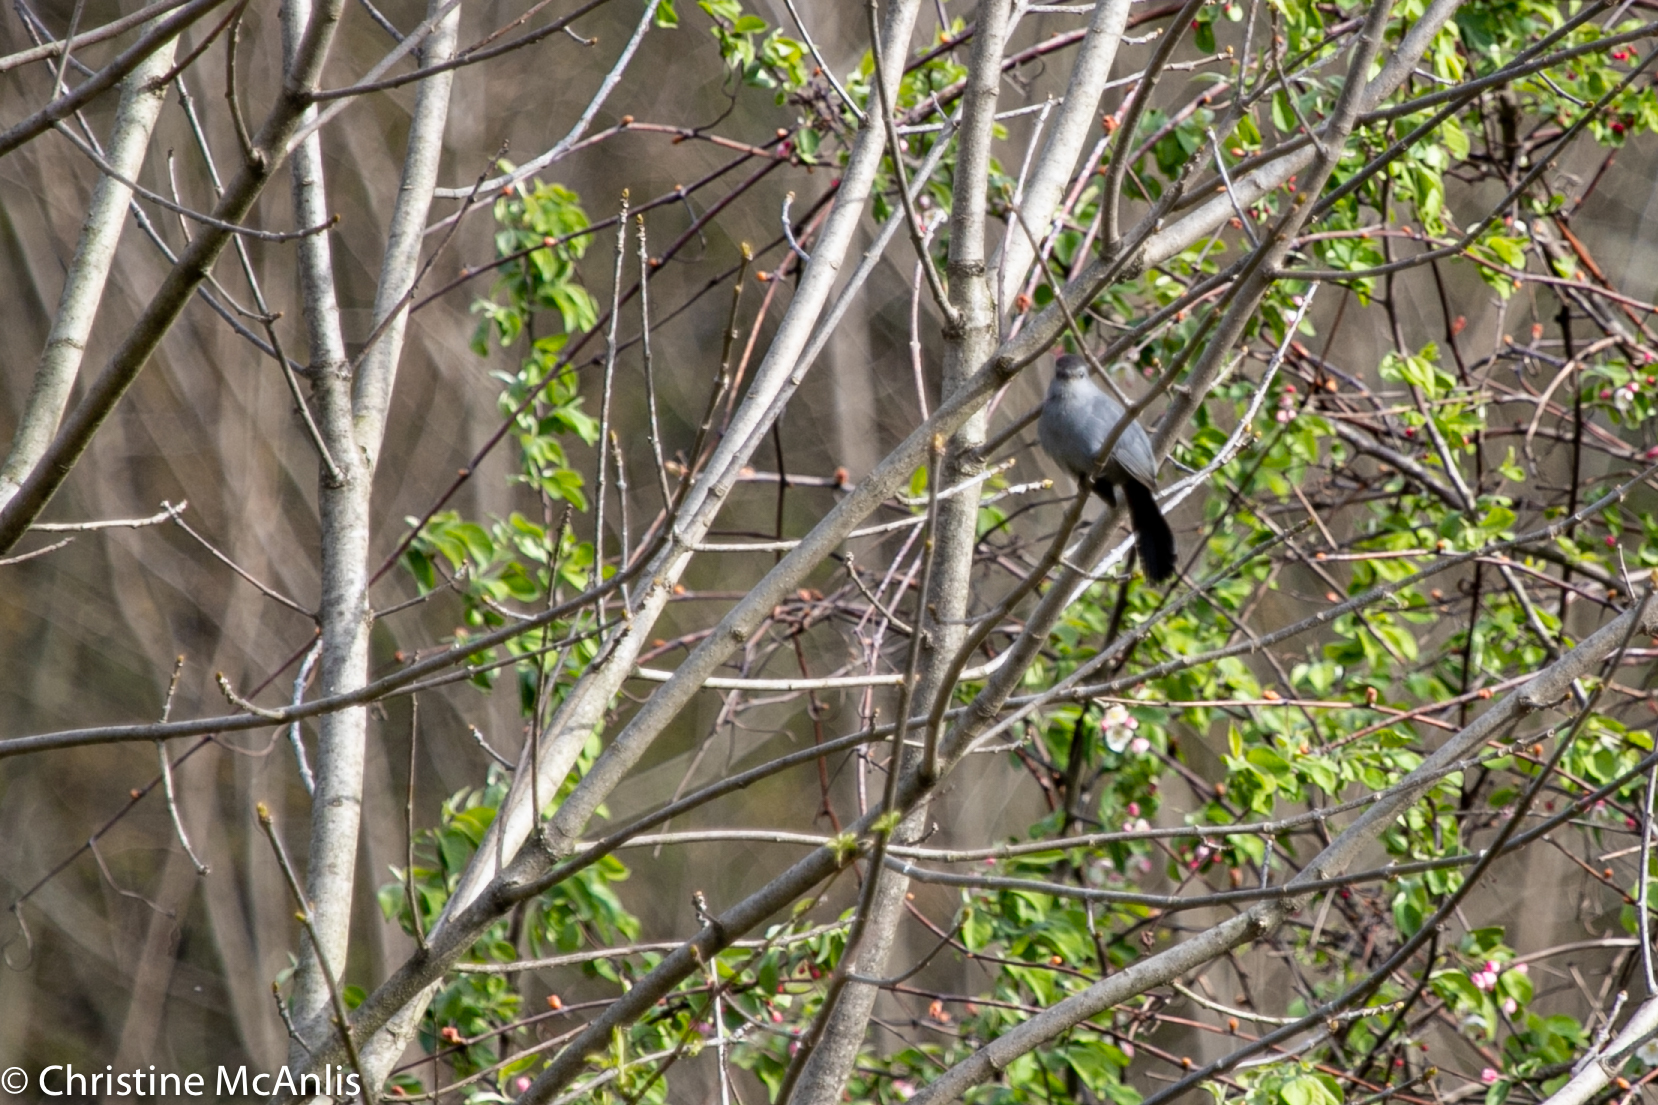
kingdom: Animalia
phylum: Chordata
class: Aves
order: Passeriformes
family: Mimidae
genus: Dumetella
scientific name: Dumetella carolinensis
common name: Gray catbird
